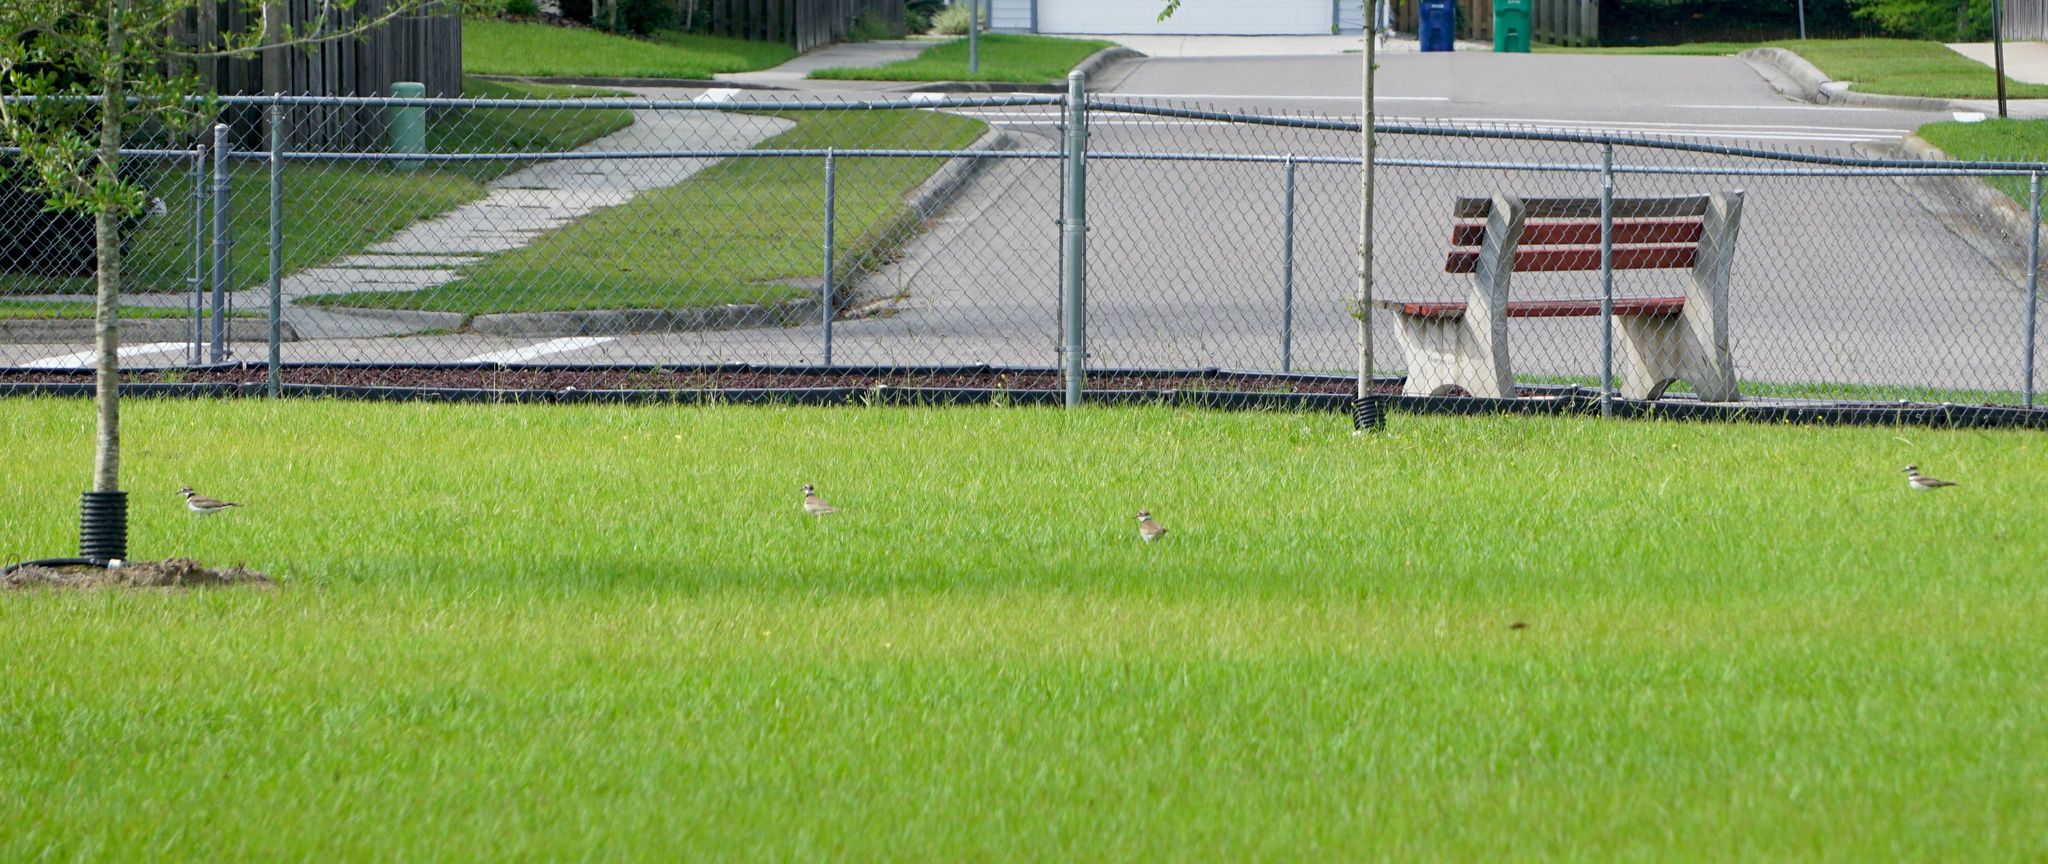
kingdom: Animalia
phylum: Chordata
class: Aves
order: Charadriiformes
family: Charadriidae
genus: Charadrius
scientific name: Charadrius vociferus
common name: Killdeer
